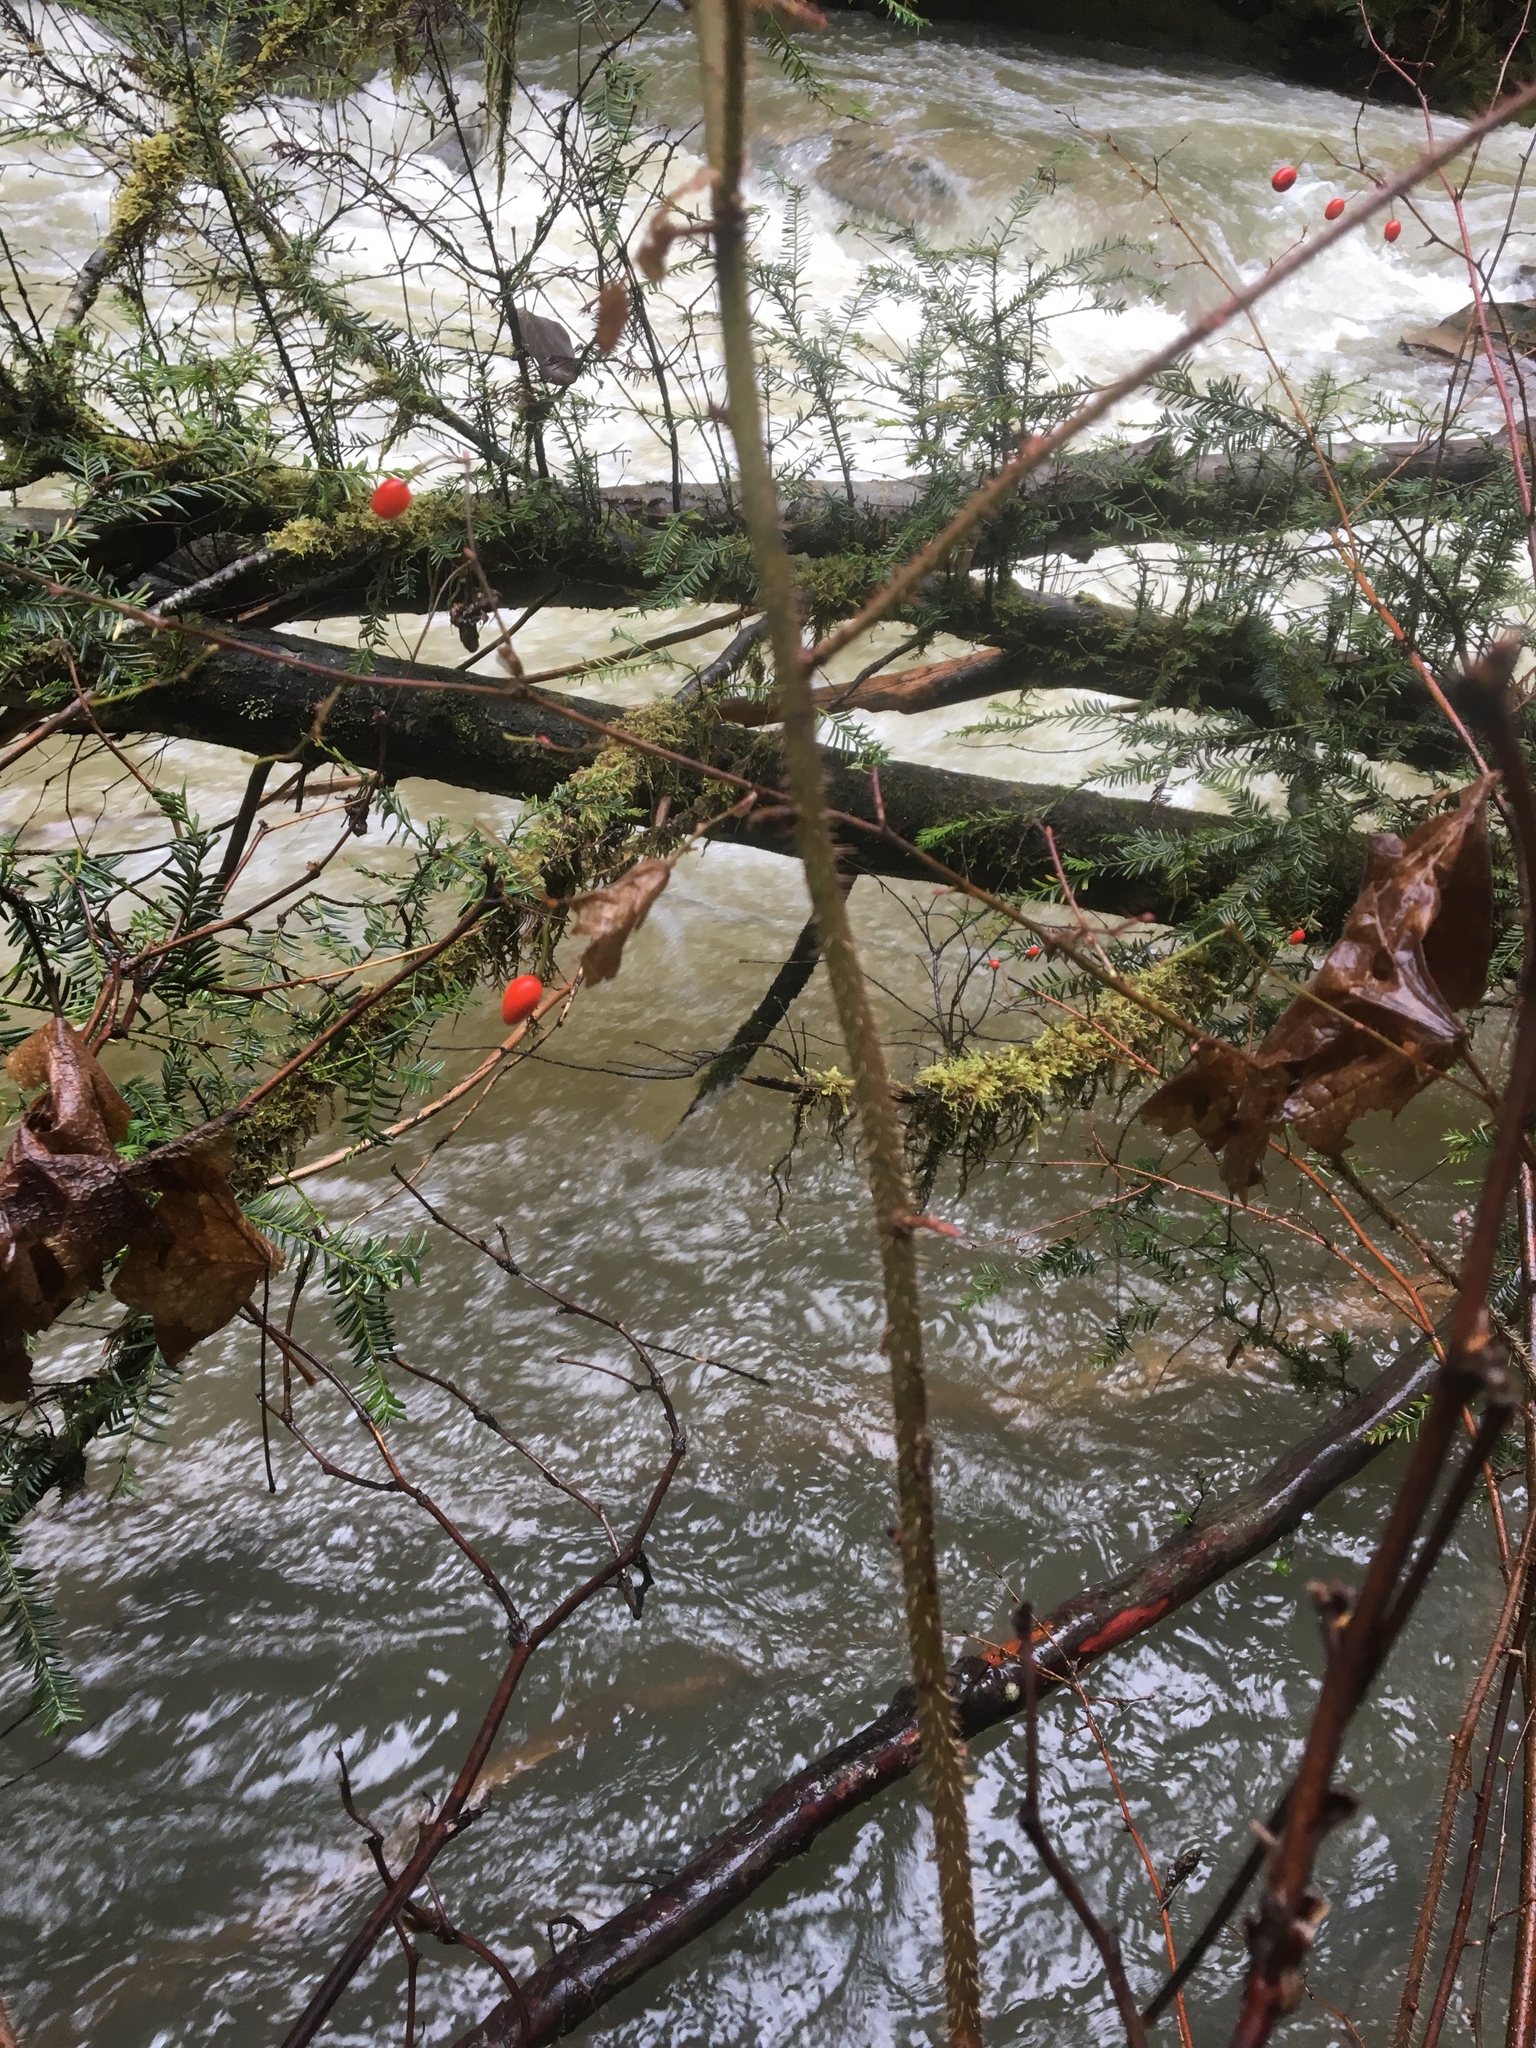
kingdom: Plantae
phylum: Tracheophyta
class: Magnoliopsida
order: Rosales
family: Rosaceae
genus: Rosa
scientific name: Rosa gymnocarpa
